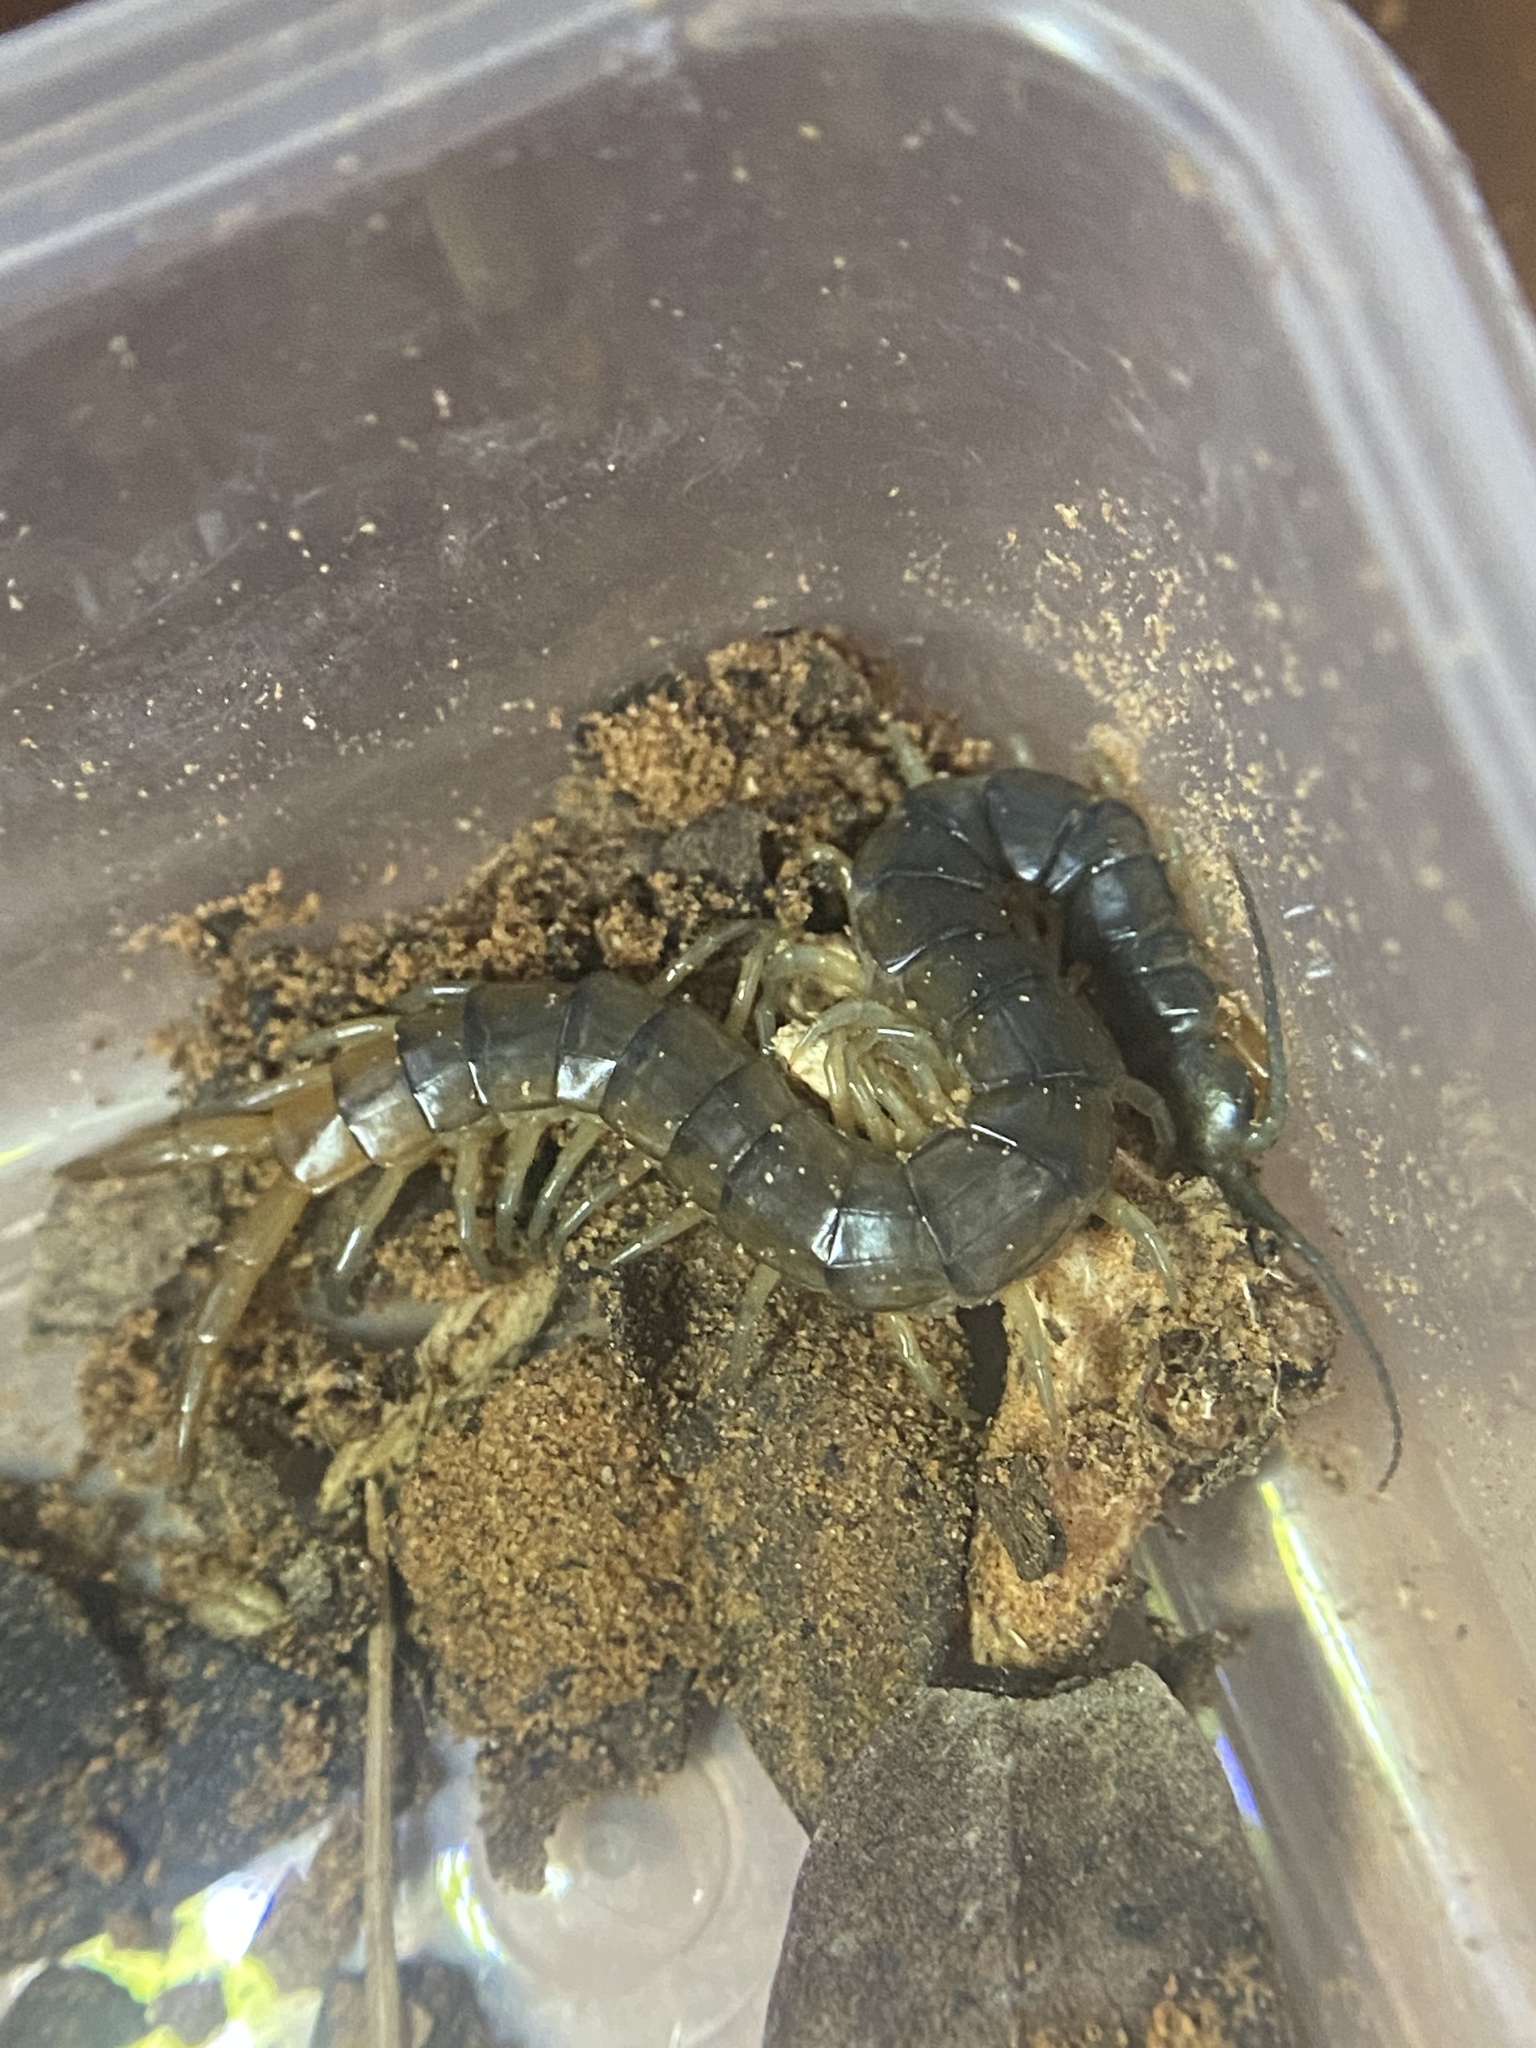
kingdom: Animalia
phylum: Arthropoda
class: Chilopoda
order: Scolopendromorpha
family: Scolopendridae
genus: Scolopendra
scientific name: Scolopendra viridis
